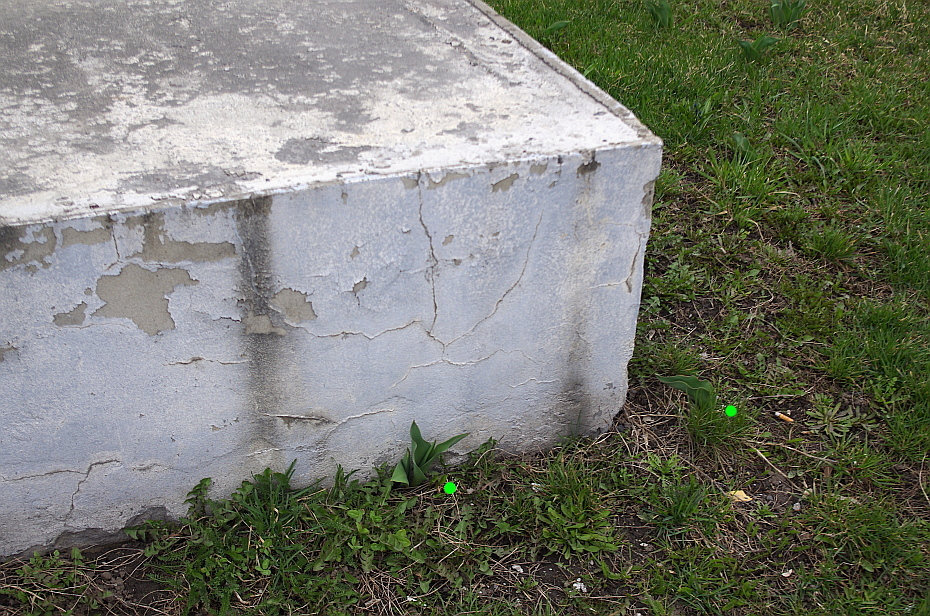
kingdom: Plantae
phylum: Tracheophyta
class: Liliopsida
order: Liliales
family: Liliaceae
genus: Tulipa
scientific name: Tulipa gesneriana
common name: Garden tulip
